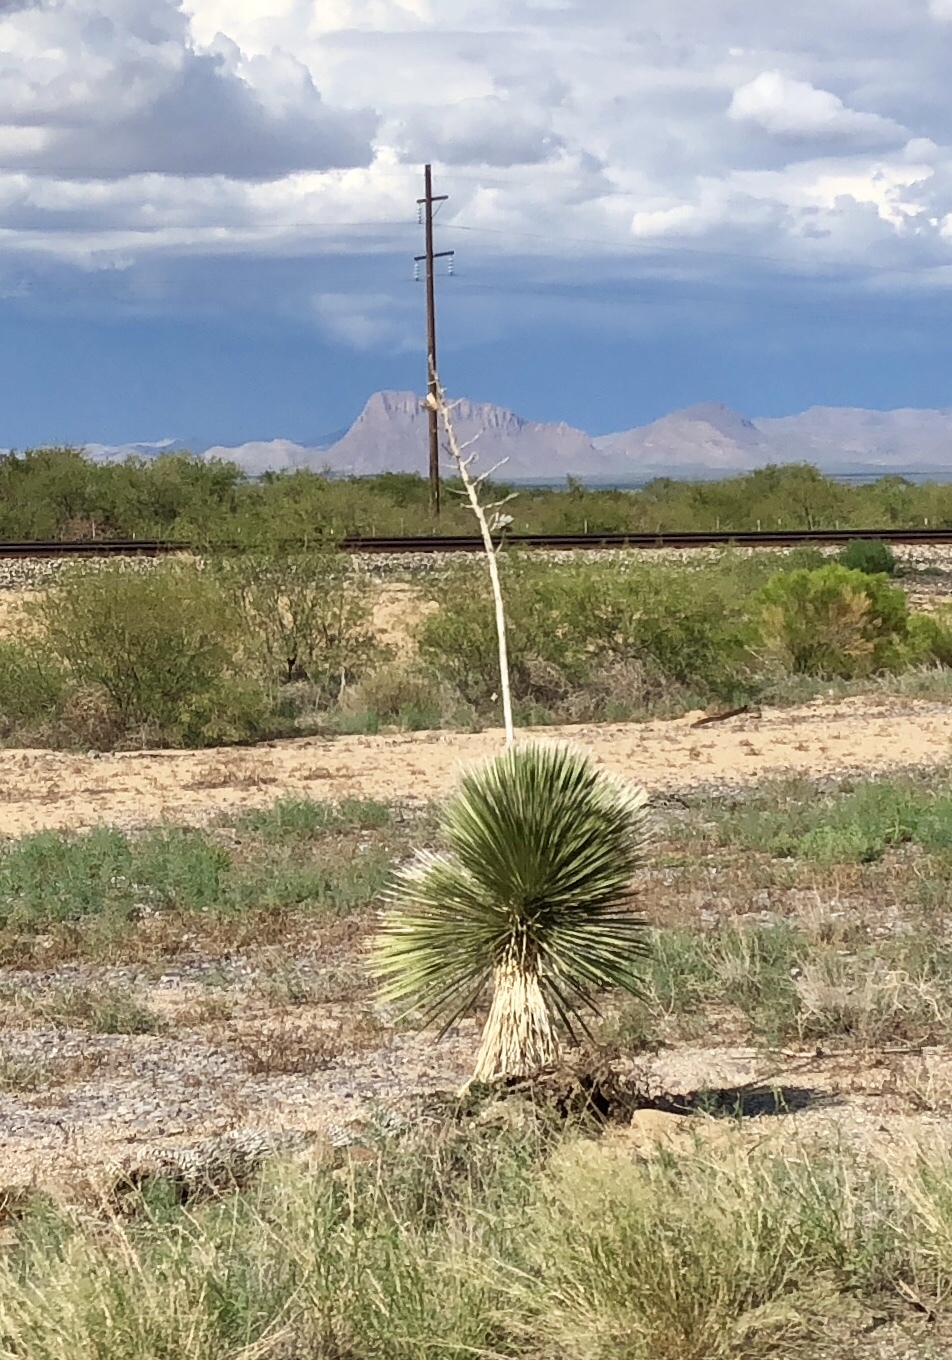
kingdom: Plantae
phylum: Tracheophyta
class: Liliopsida
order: Asparagales
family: Asparagaceae
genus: Yucca
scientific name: Yucca elata
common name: Palmella
